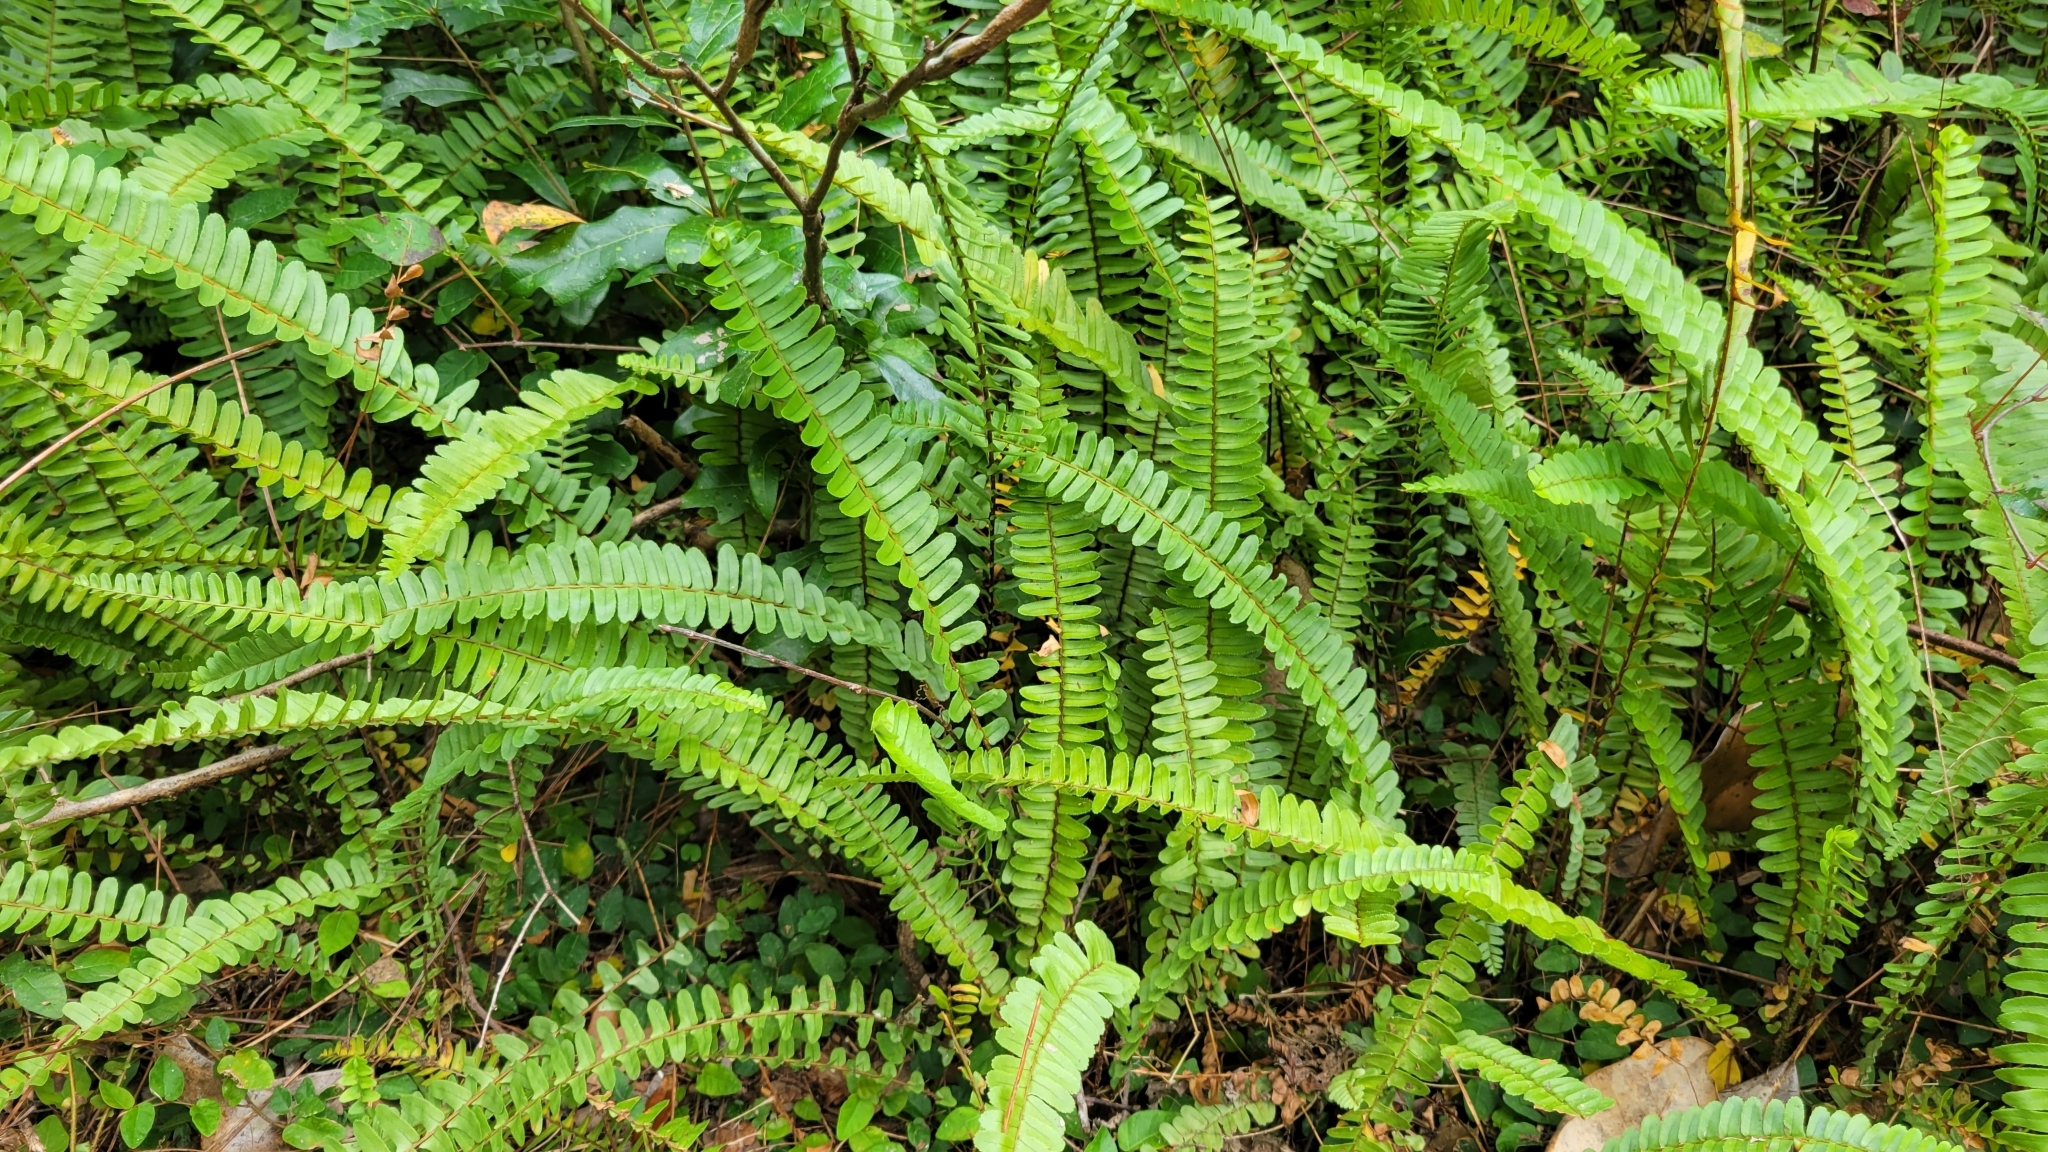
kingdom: Plantae
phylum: Tracheophyta
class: Polypodiopsida
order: Polypodiales
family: Nephrolepidaceae
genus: Nephrolepis
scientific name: Nephrolepis cordifolia
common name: Narrow swordfern
